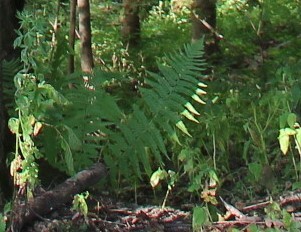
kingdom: Plantae
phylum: Tracheophyta
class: Polypodiopsida
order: Polypodiales
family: Dryopteridaceae
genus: Dryopteris
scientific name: Dryopteris filix-mas
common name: Male fern
